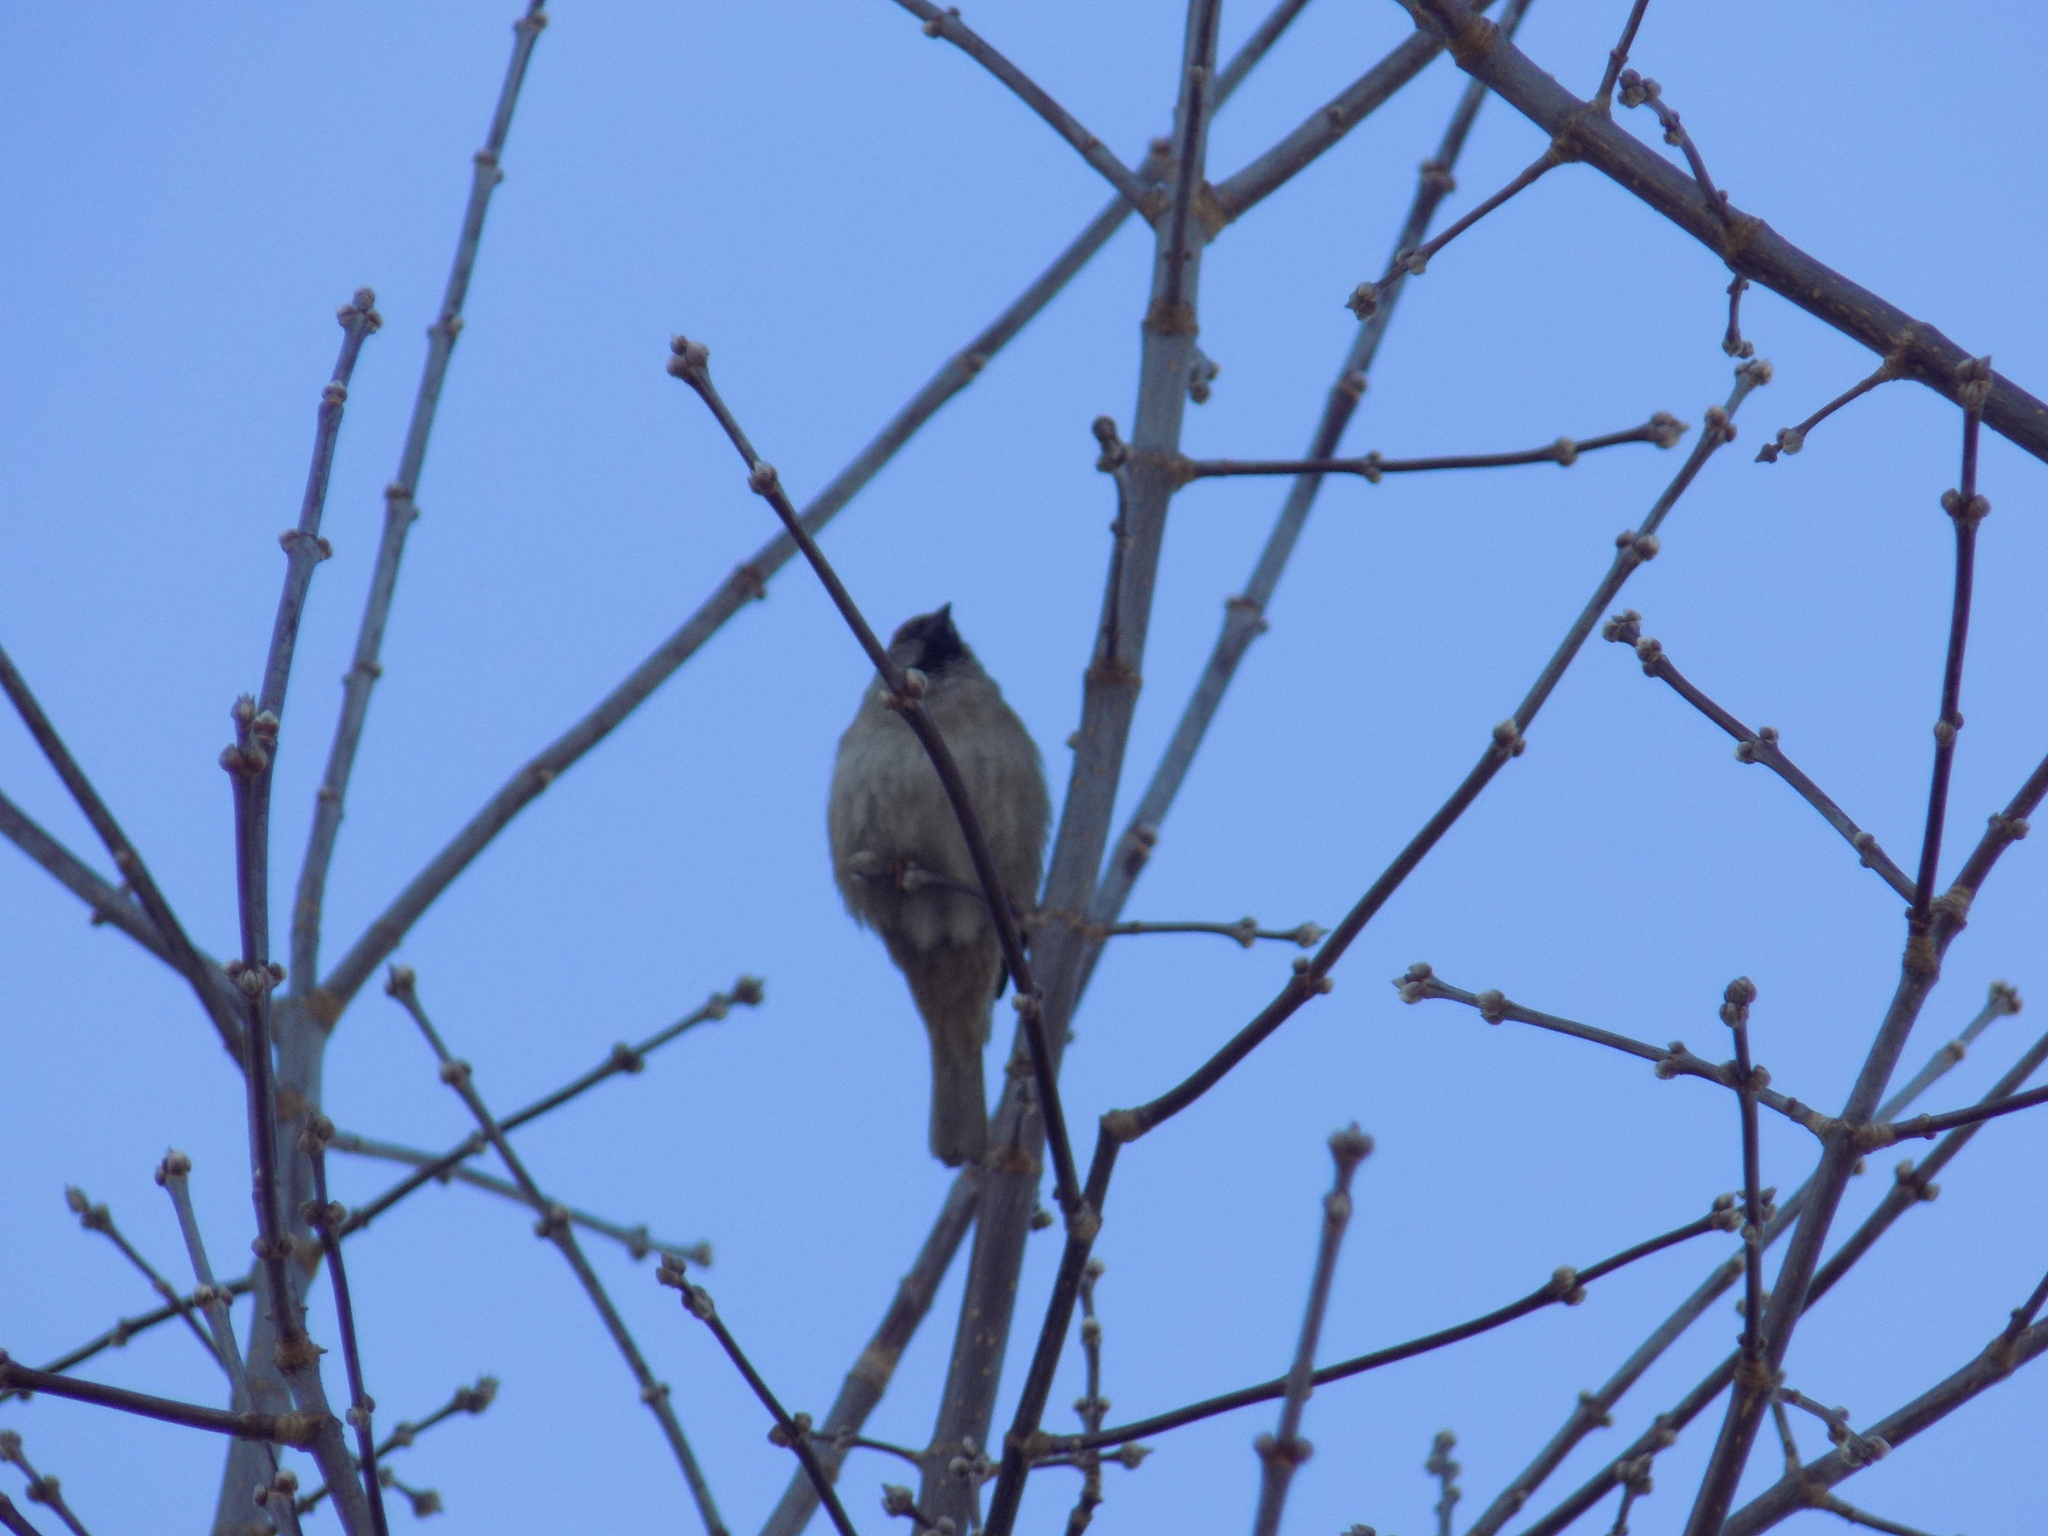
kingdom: Animalia
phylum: Chordata
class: Aves
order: Passeriformes
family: Passeridae
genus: Passer
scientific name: Passer domesticus
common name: House sparrow
